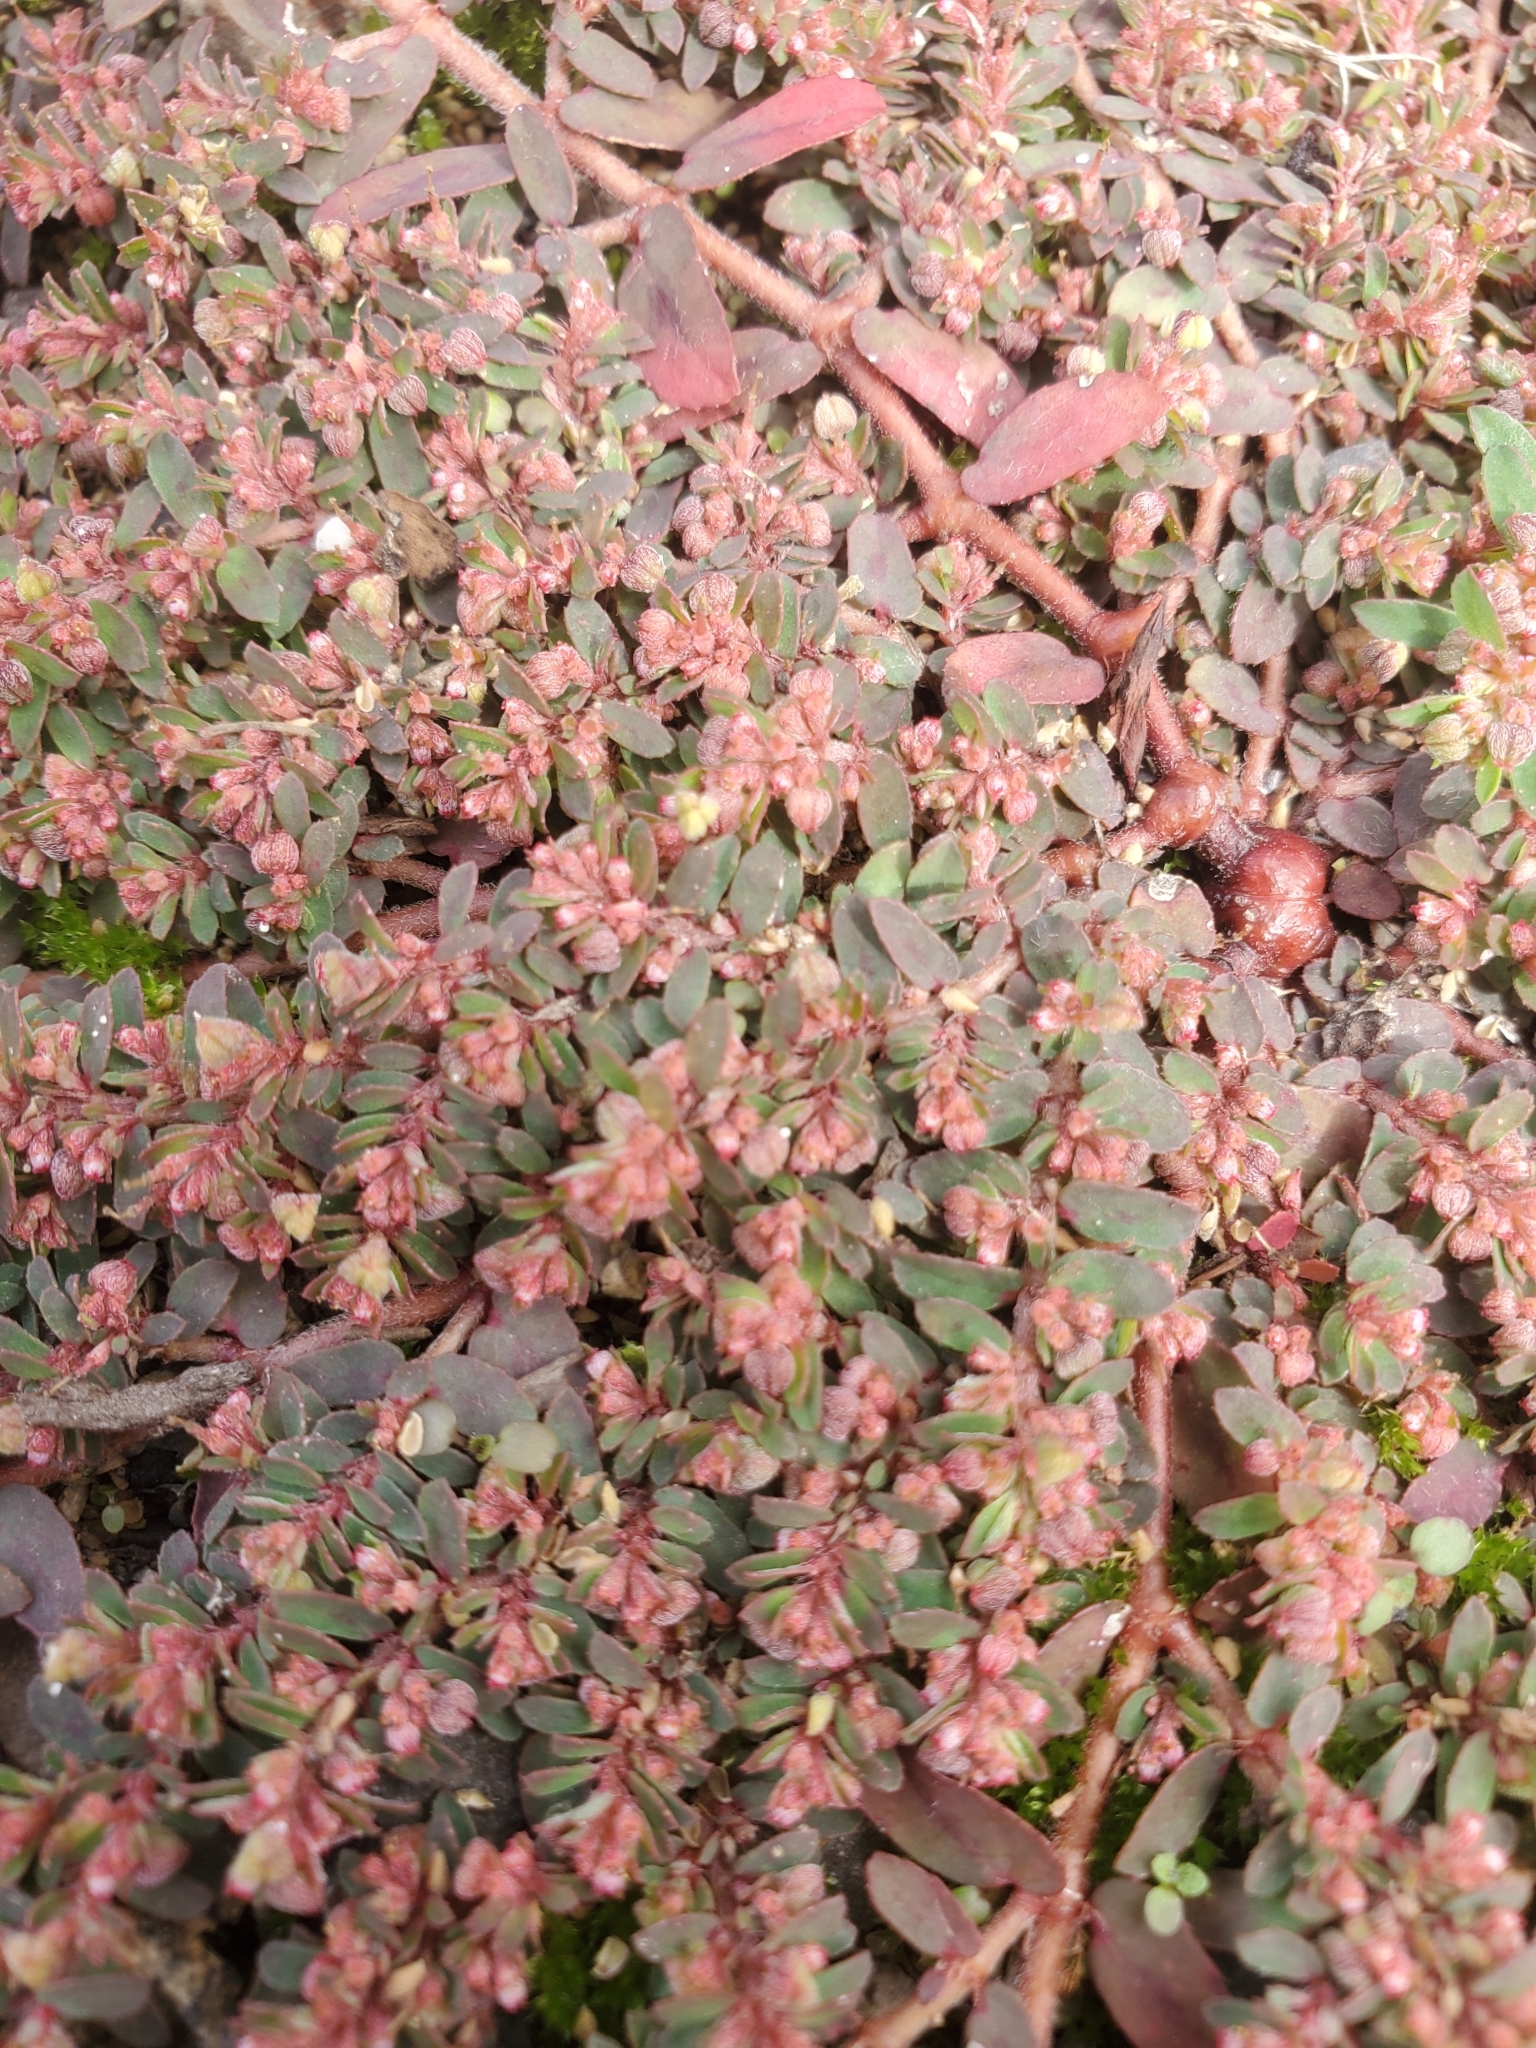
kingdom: Plantae
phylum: Tracheophyta
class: Magnoliopsida
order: Malpighiales
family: Euphorbiaceae
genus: Euphorbia
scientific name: Euphorbia maculata
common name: Spotted spurge
